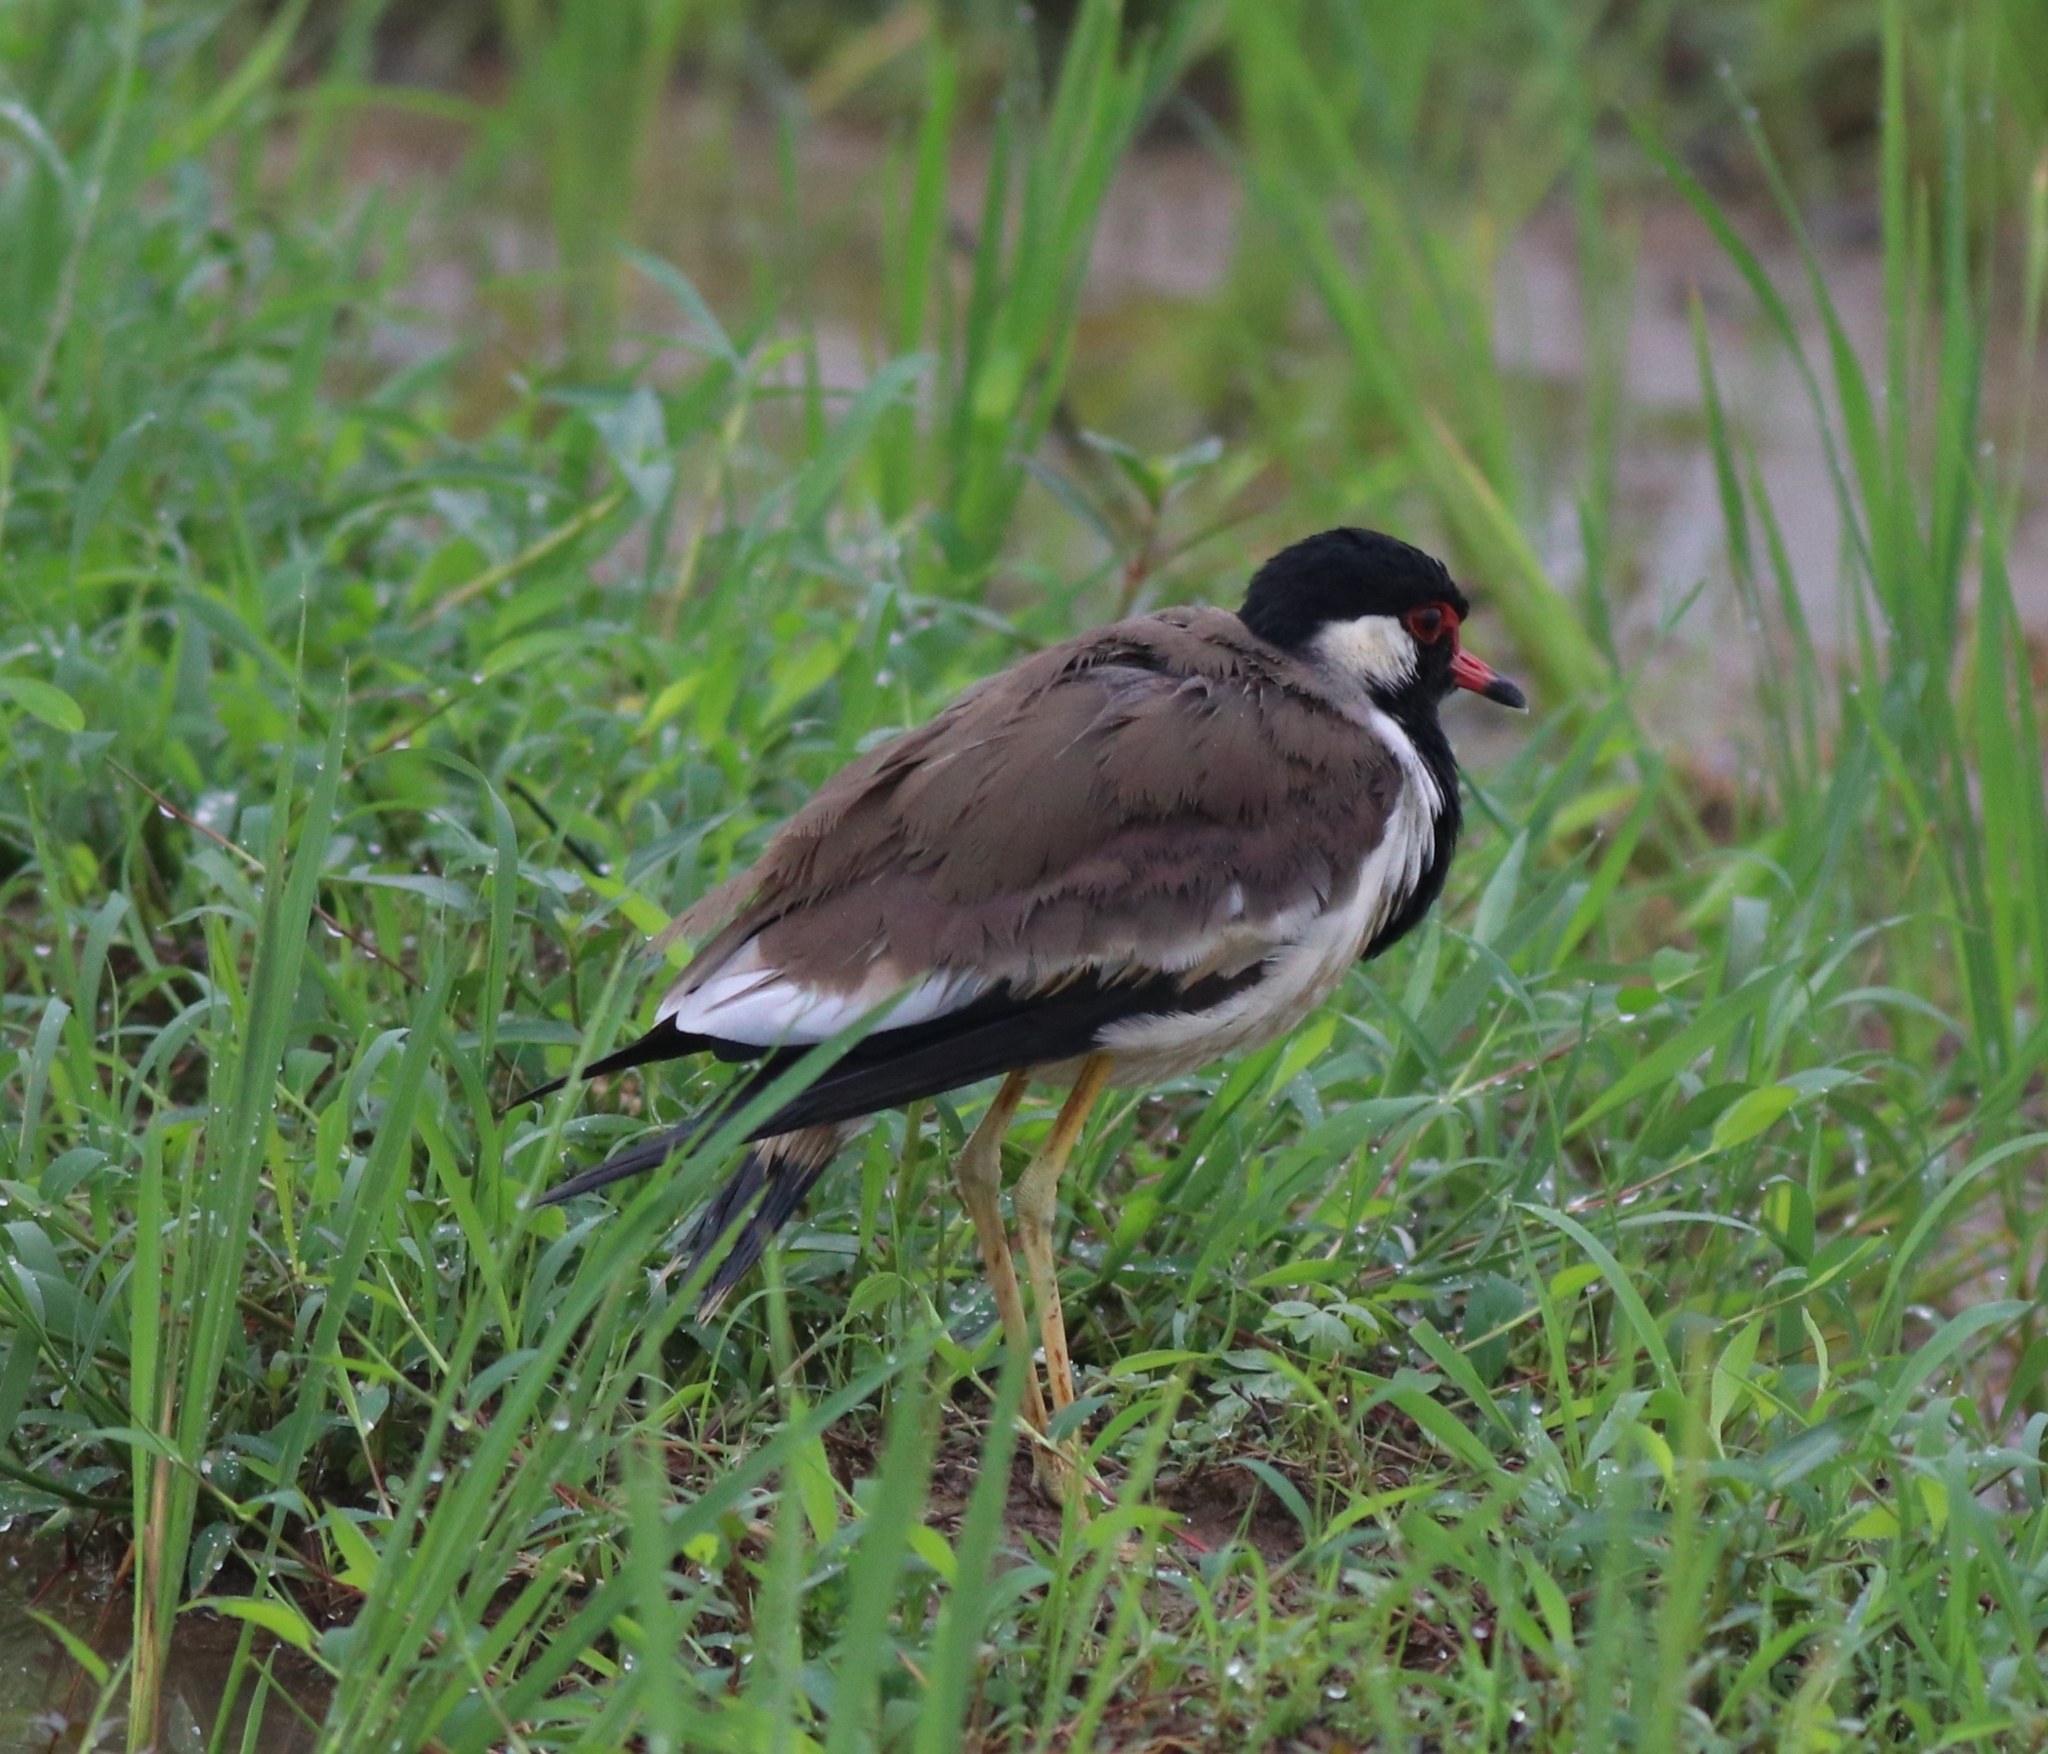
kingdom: Animalia
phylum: Chordata
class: Aves
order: Charadriiformes
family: Charadriidae
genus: Vanellus
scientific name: Vanellus indicus
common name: Red-wattled lapwing
